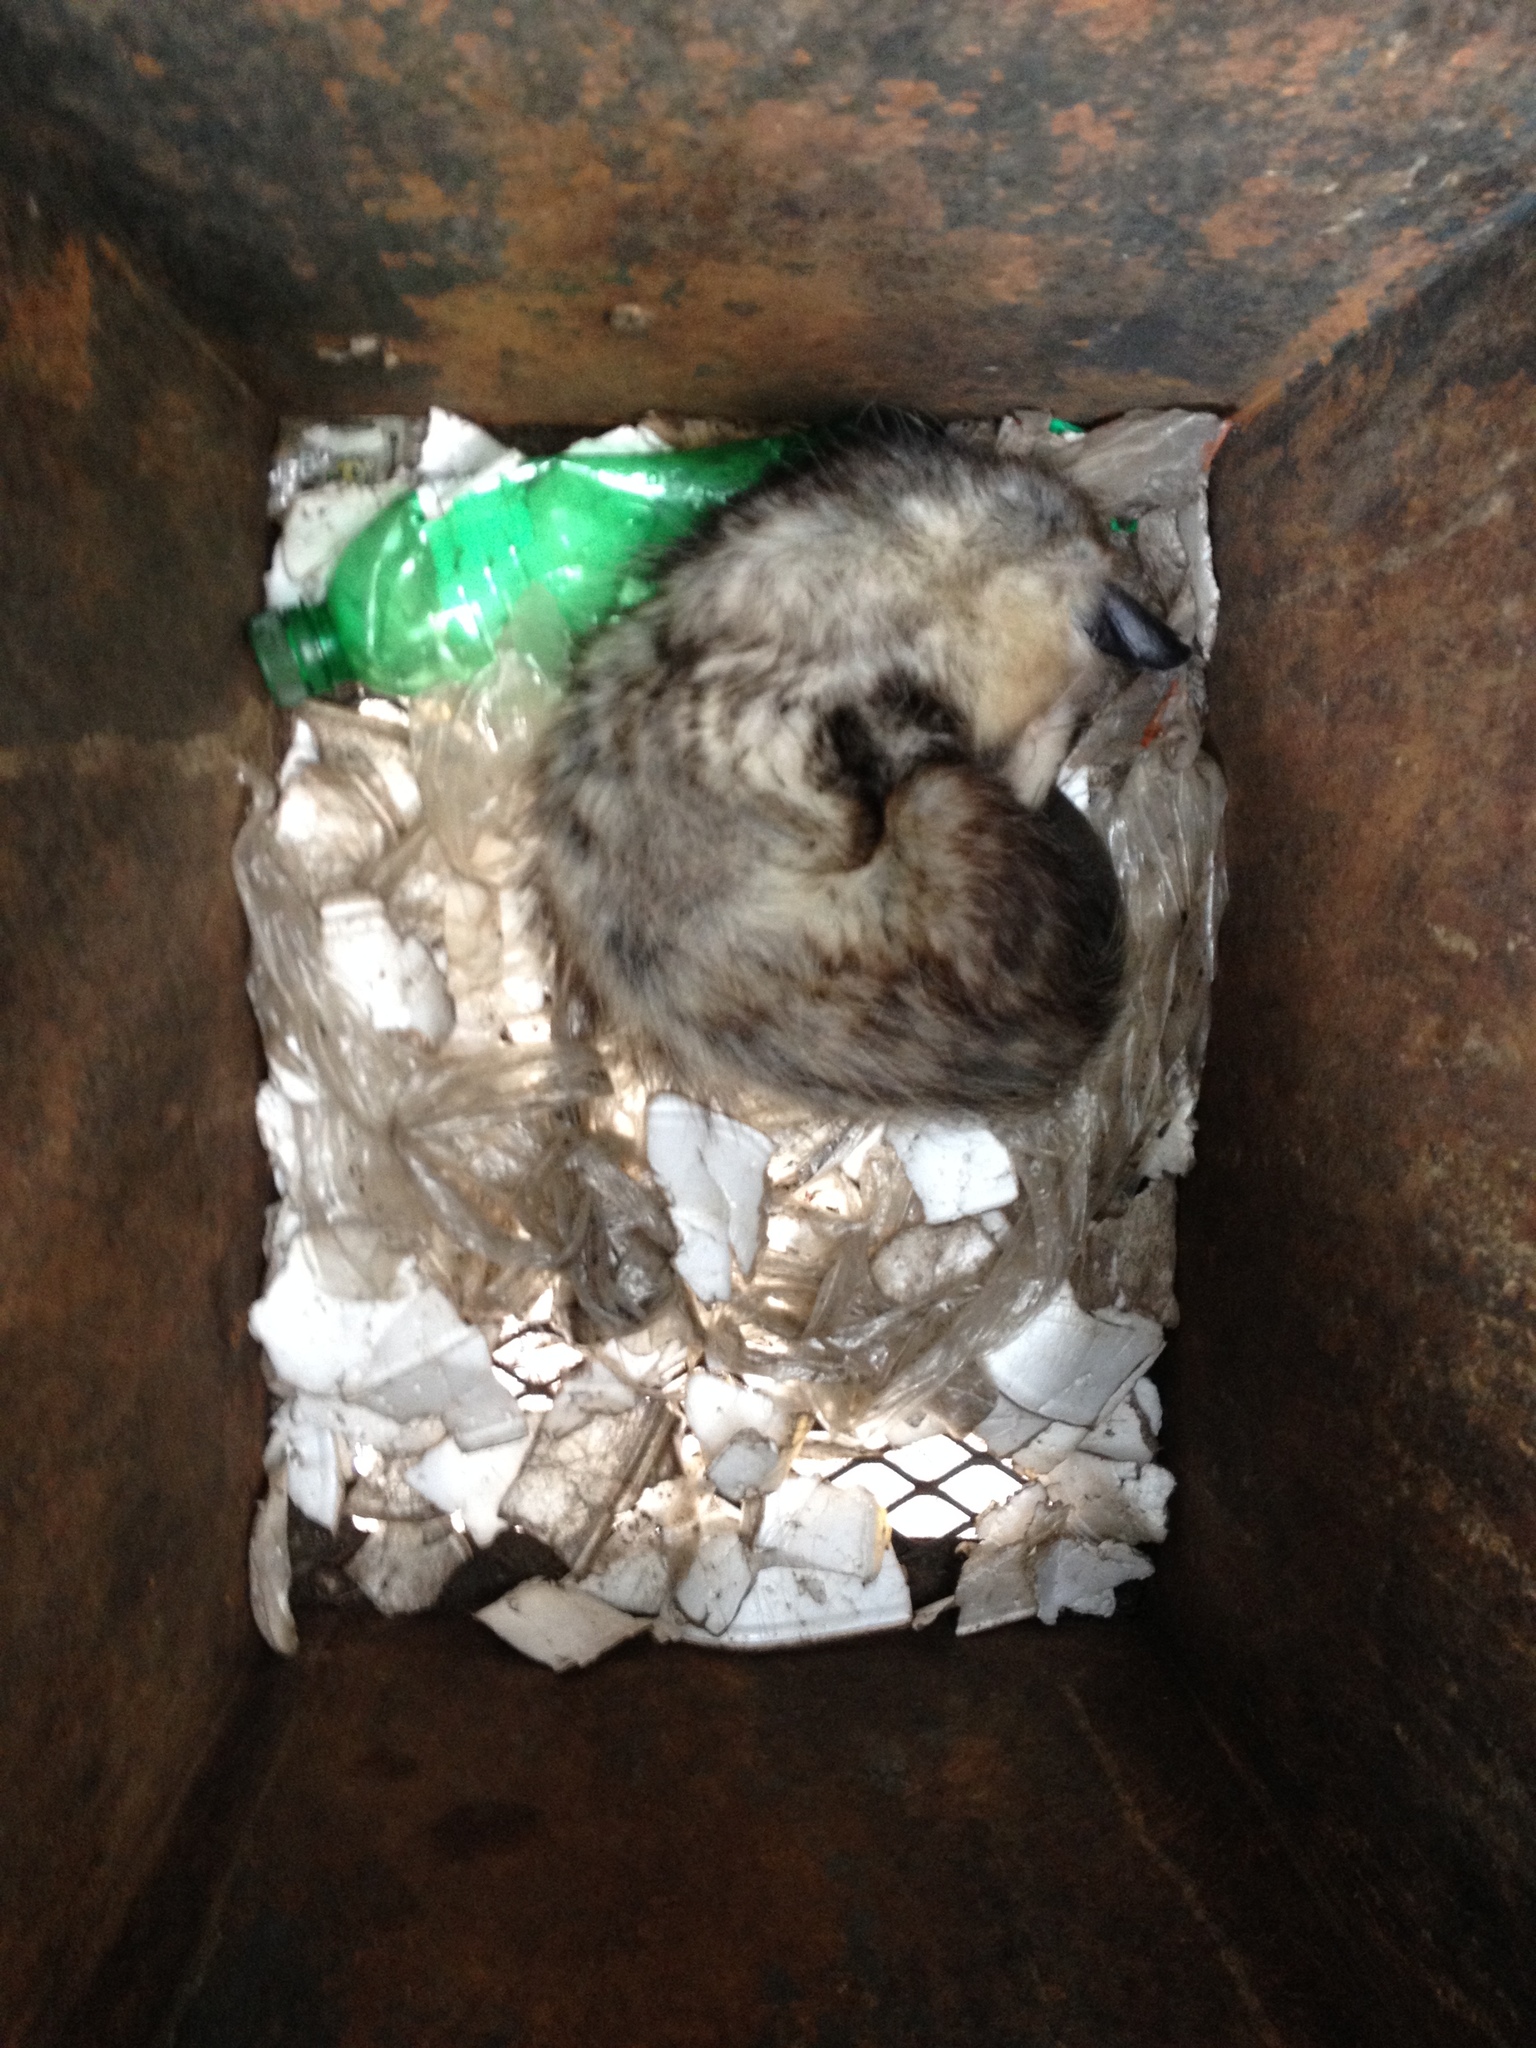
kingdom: Animalia
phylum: Chordata
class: Mammalia
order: Didelphimorphia
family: Didelphidae
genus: Didelphis
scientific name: Didelphis virginiana
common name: Virginia opossum
